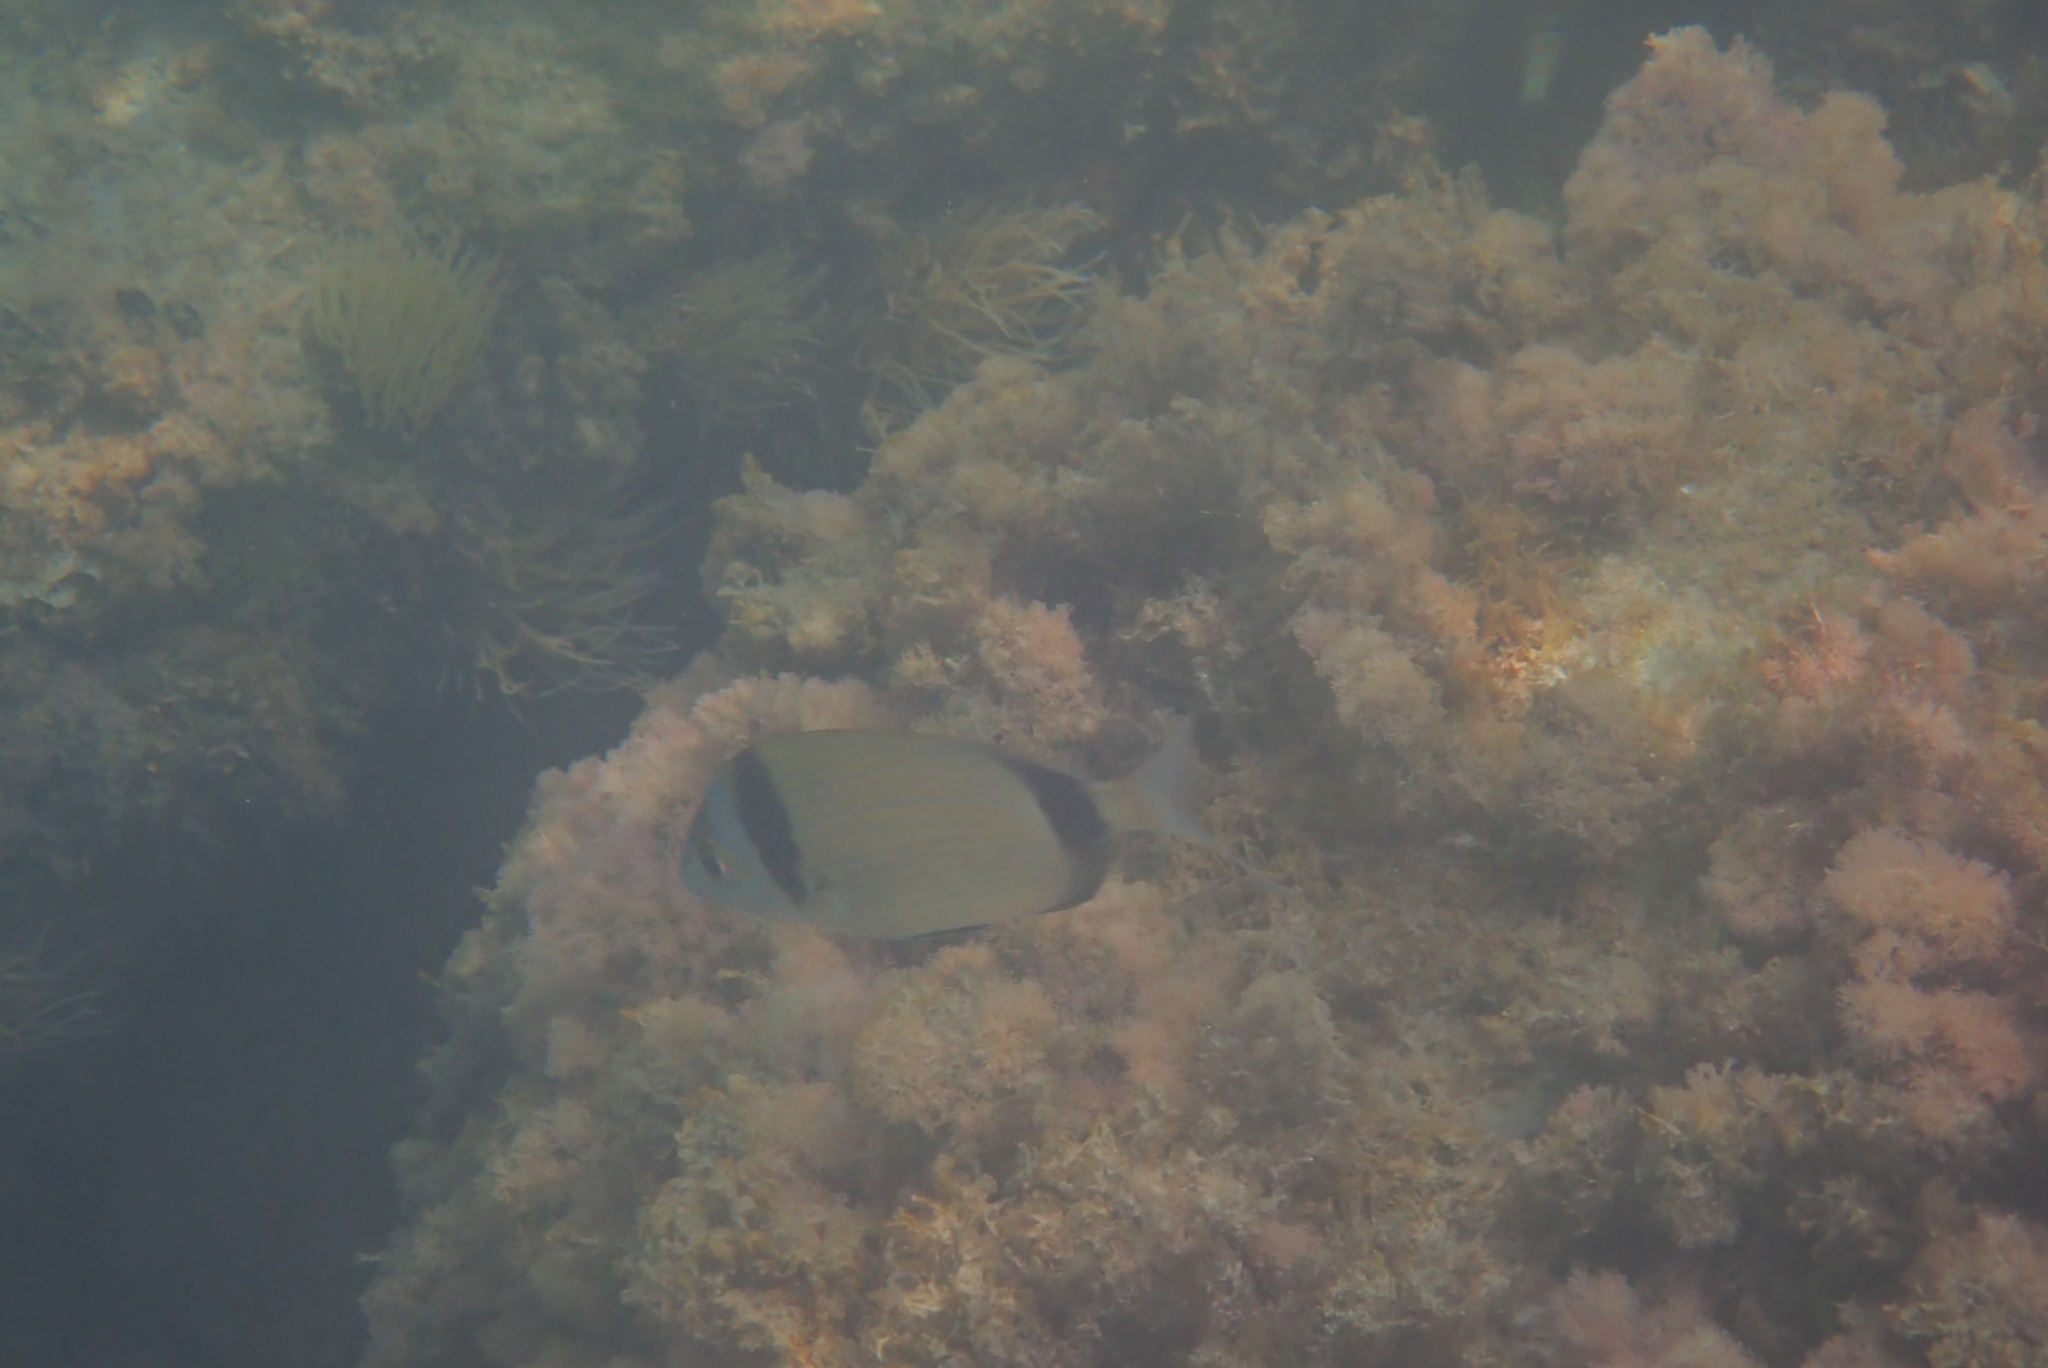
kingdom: Animalia
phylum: Chordata
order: Perciformes
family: Sparidae
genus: Diplodus
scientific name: Diplodus vulgaris
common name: Common two-banded seabream
